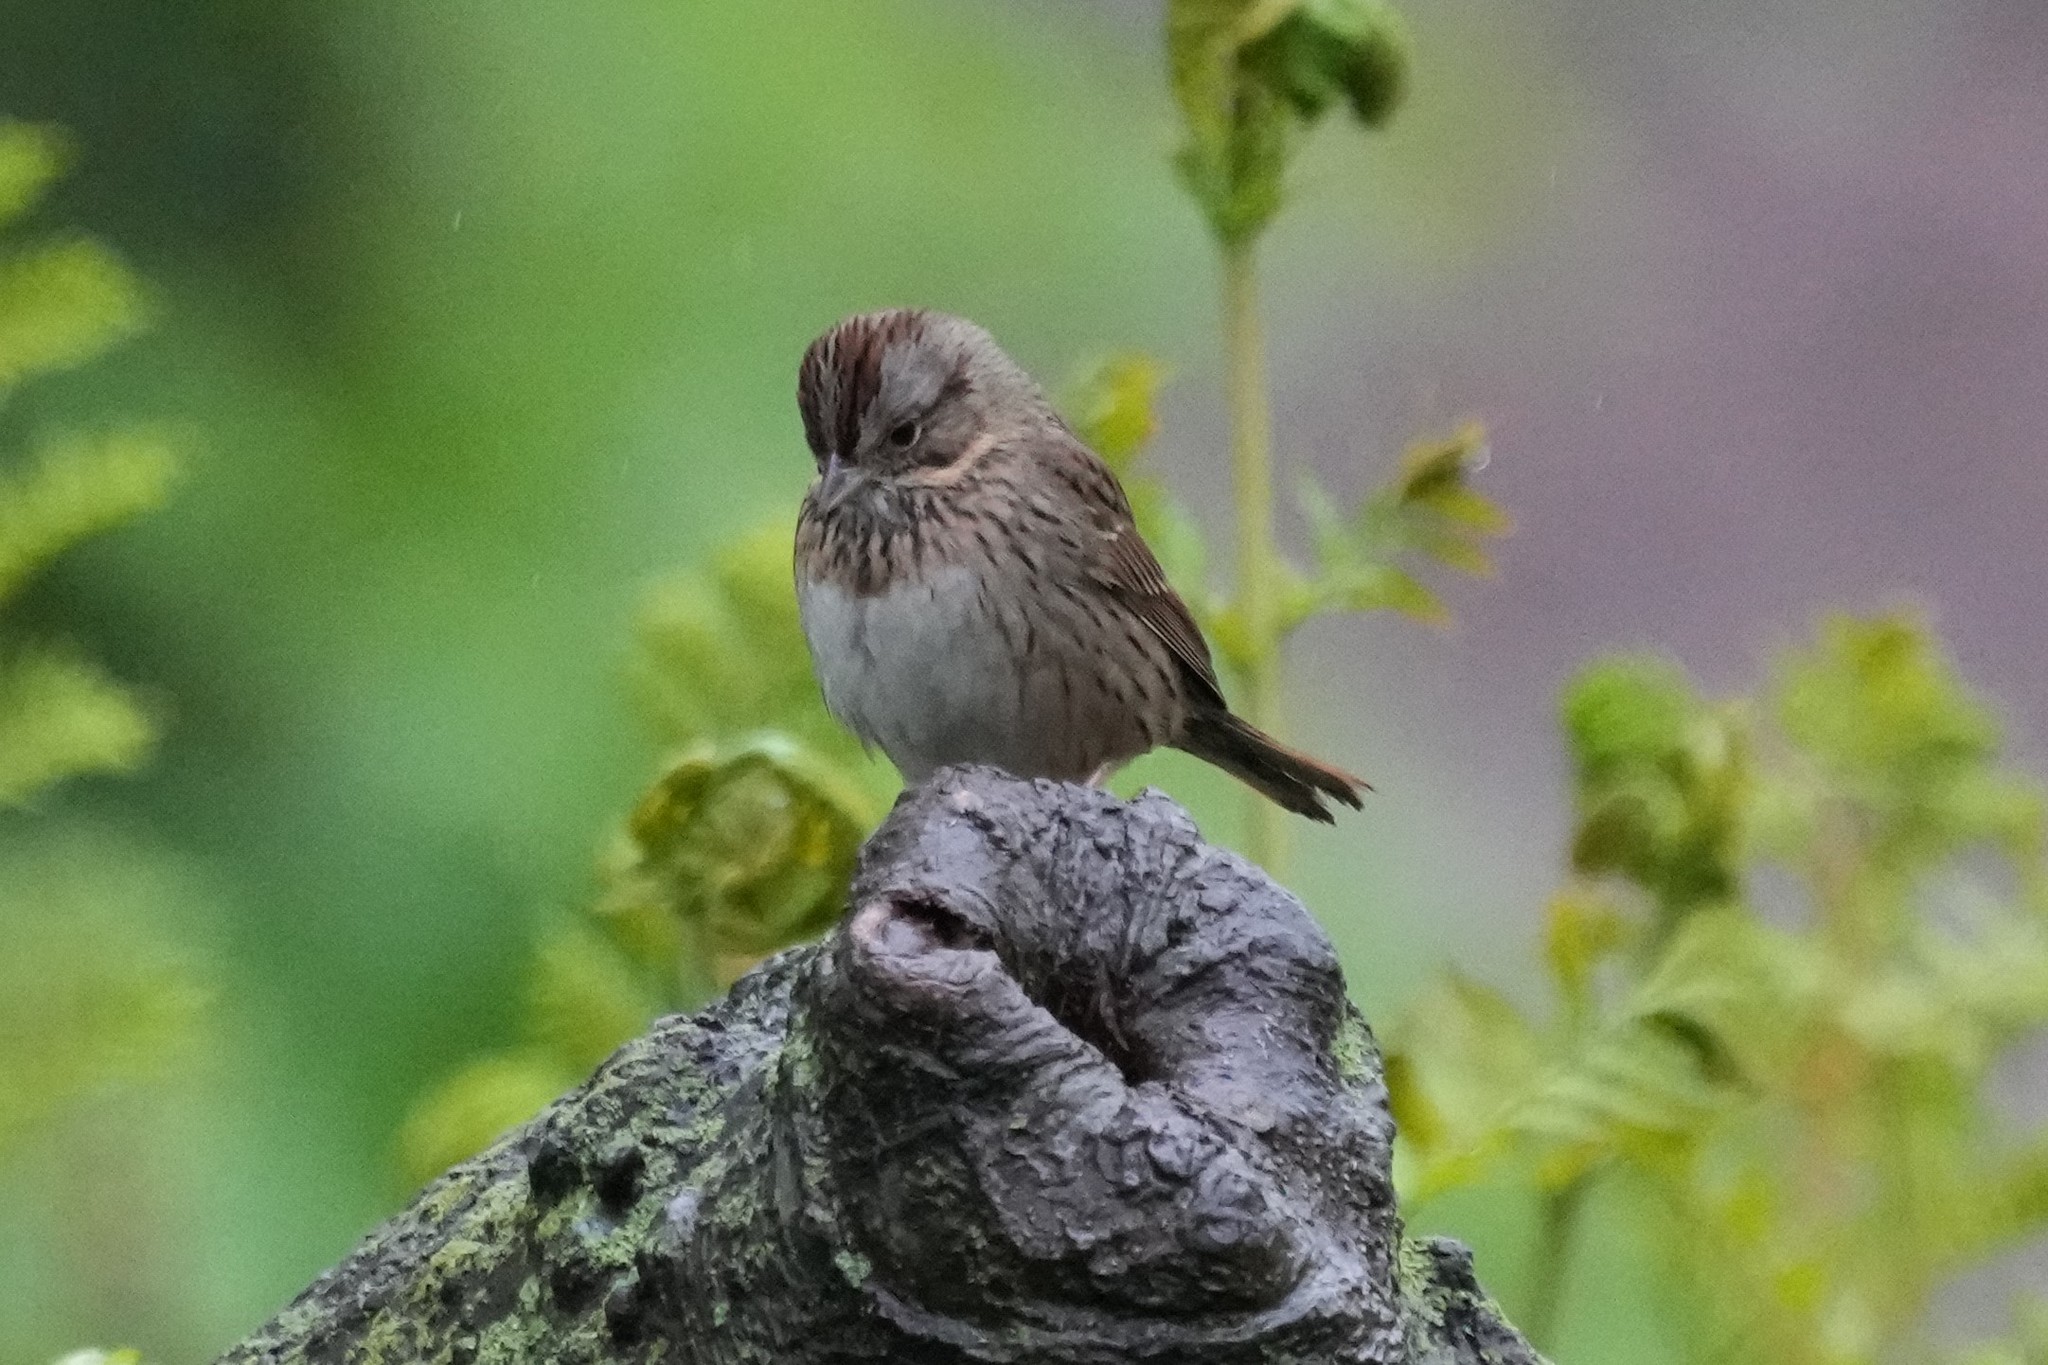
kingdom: Animalia
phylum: Chordata
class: Aves
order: Passeriformes
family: Passerellidae
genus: Melospiza
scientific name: Melospiza lincolnii
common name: Lincoln's sparrow
